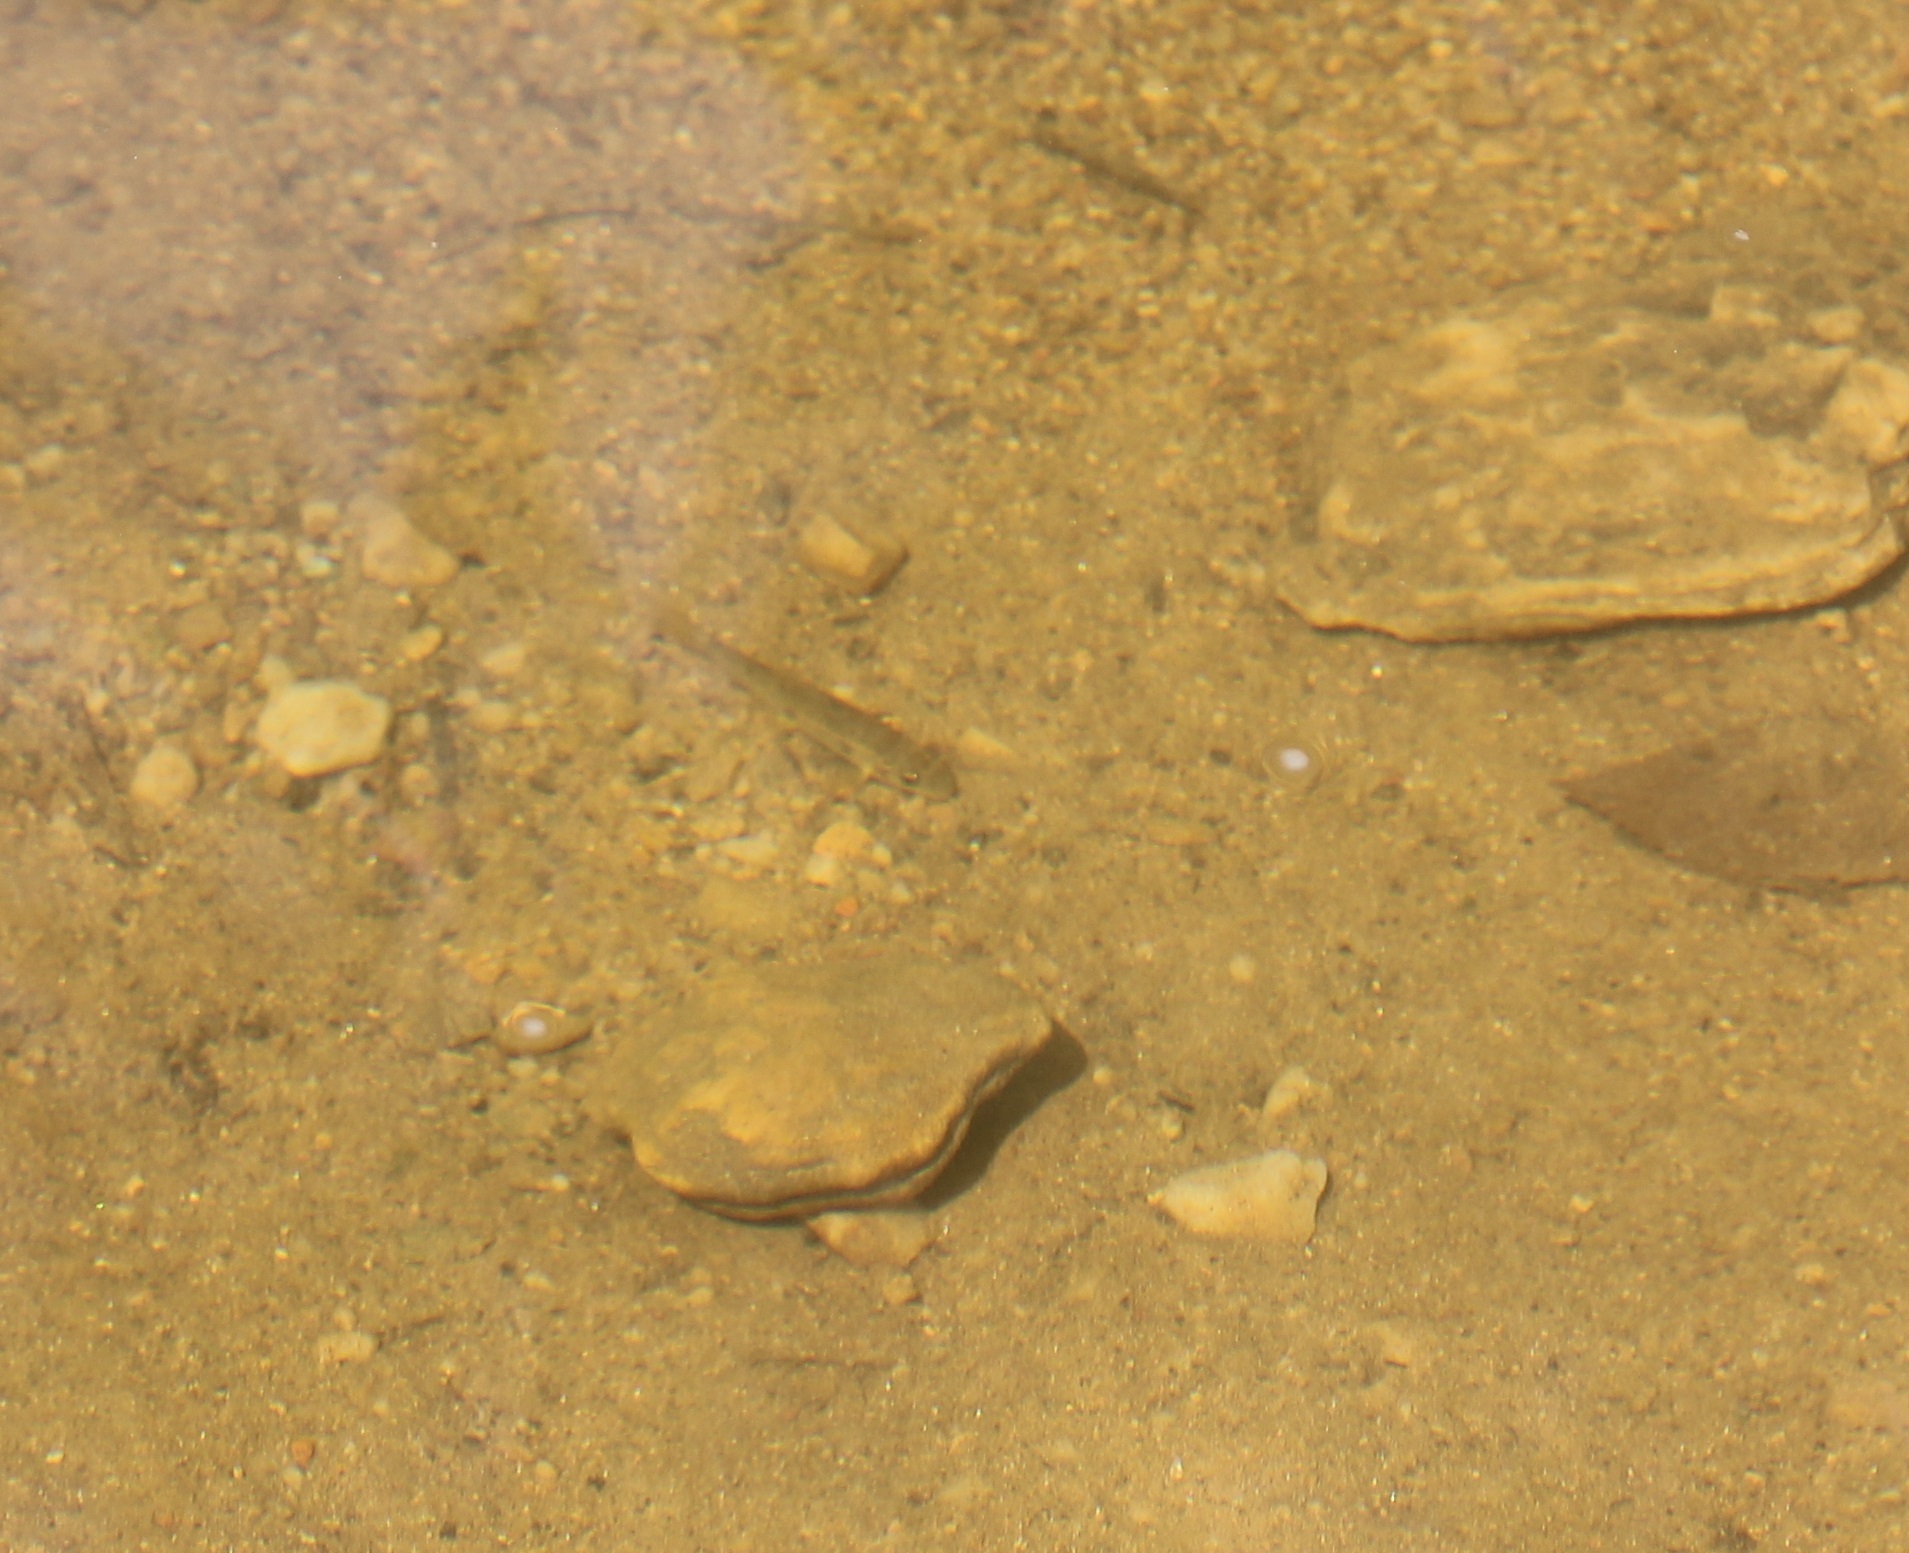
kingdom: Animalia
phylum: Chordata
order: Cypriniformes
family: Catostomidae
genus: Catostomus
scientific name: Catostomus commersonii
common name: White sucker
